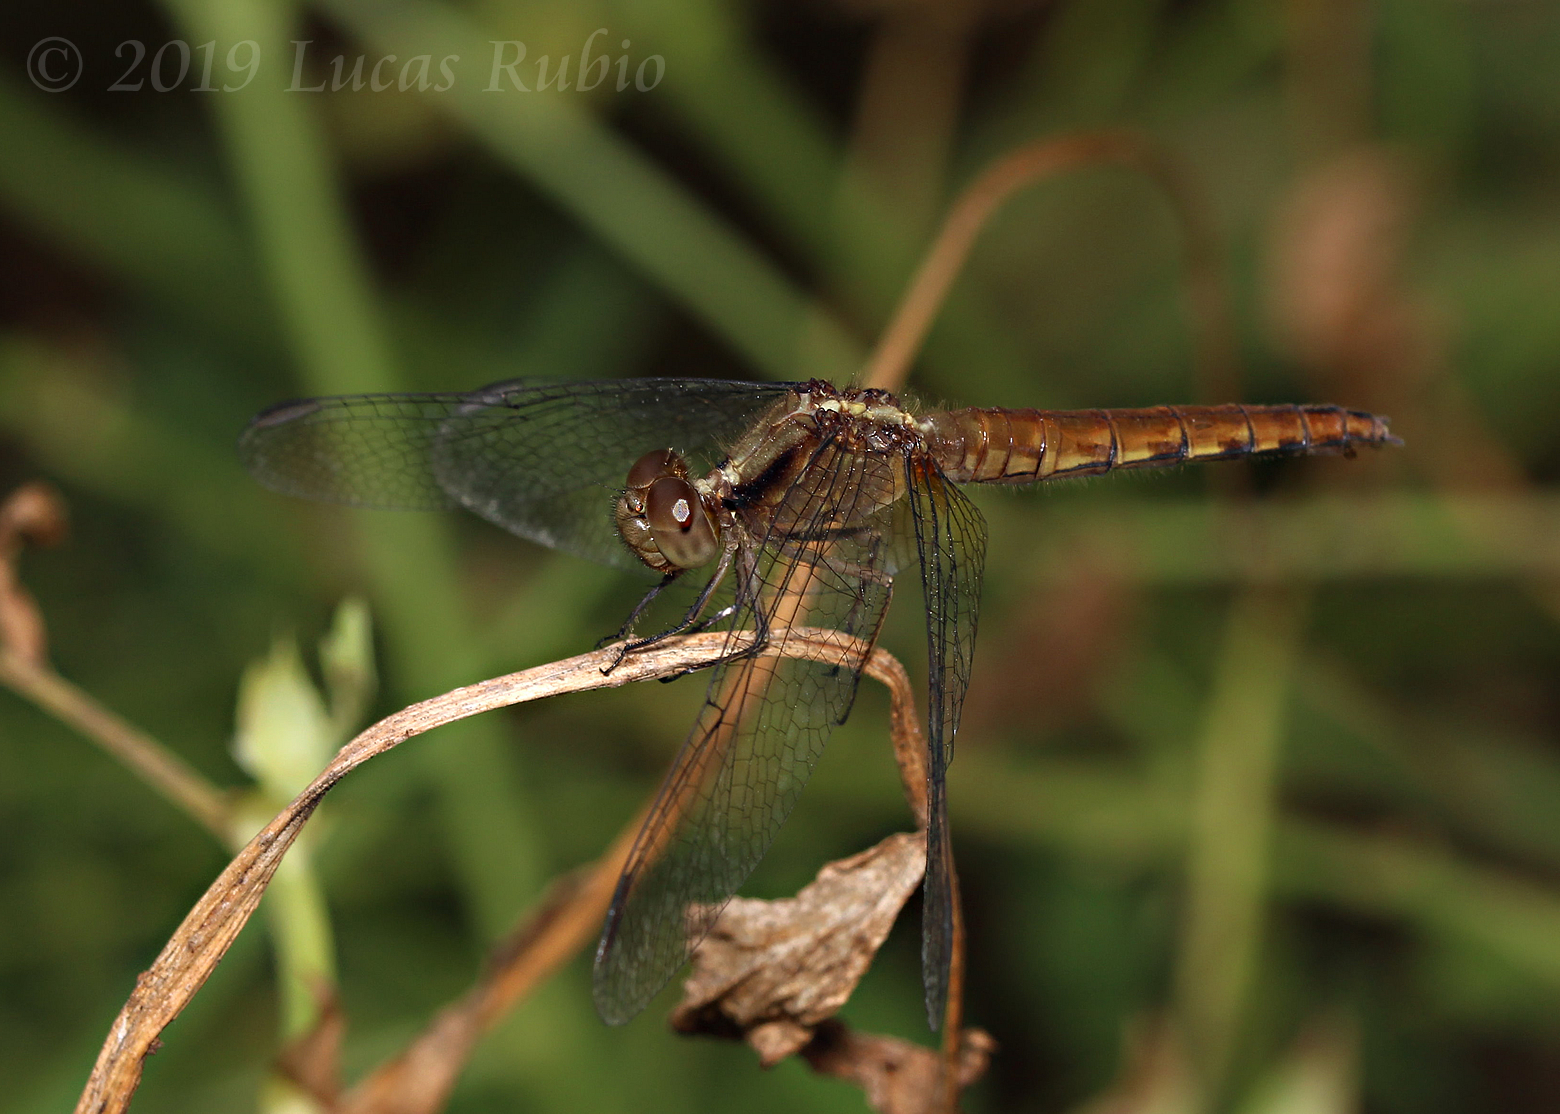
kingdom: Animalia
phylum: Arthropoda
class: Insecta
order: Odonata
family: Libellulidae
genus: Erythrodiplax
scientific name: Erythrodiplax media
